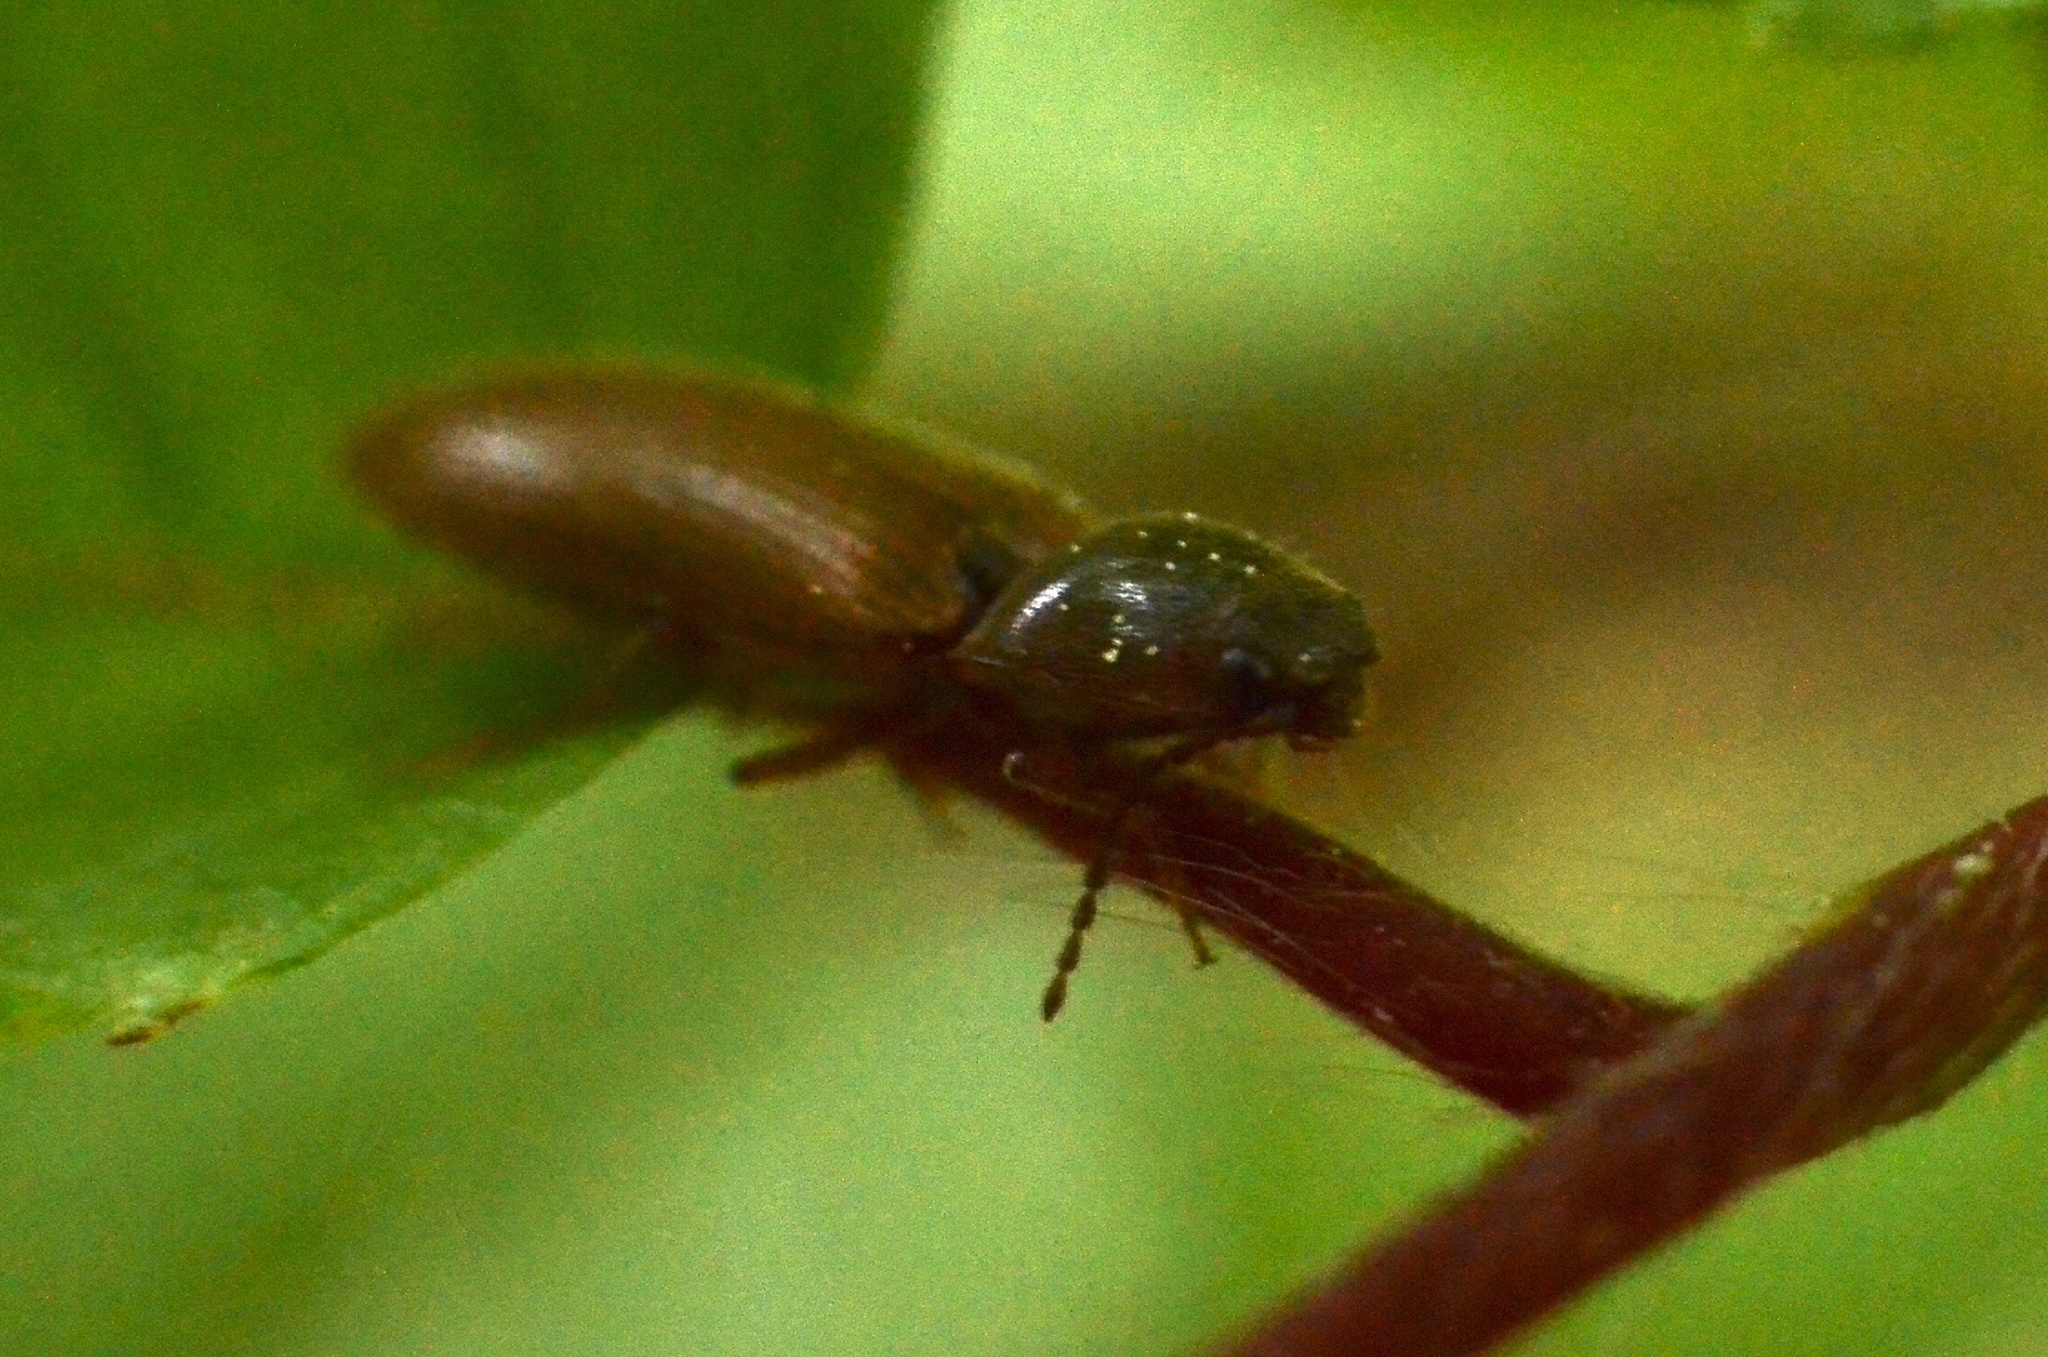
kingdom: Animalia
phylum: Arthropoda
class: Insecta
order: Coleoptera
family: Elateridae
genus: Athous
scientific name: Athous subfuscus
